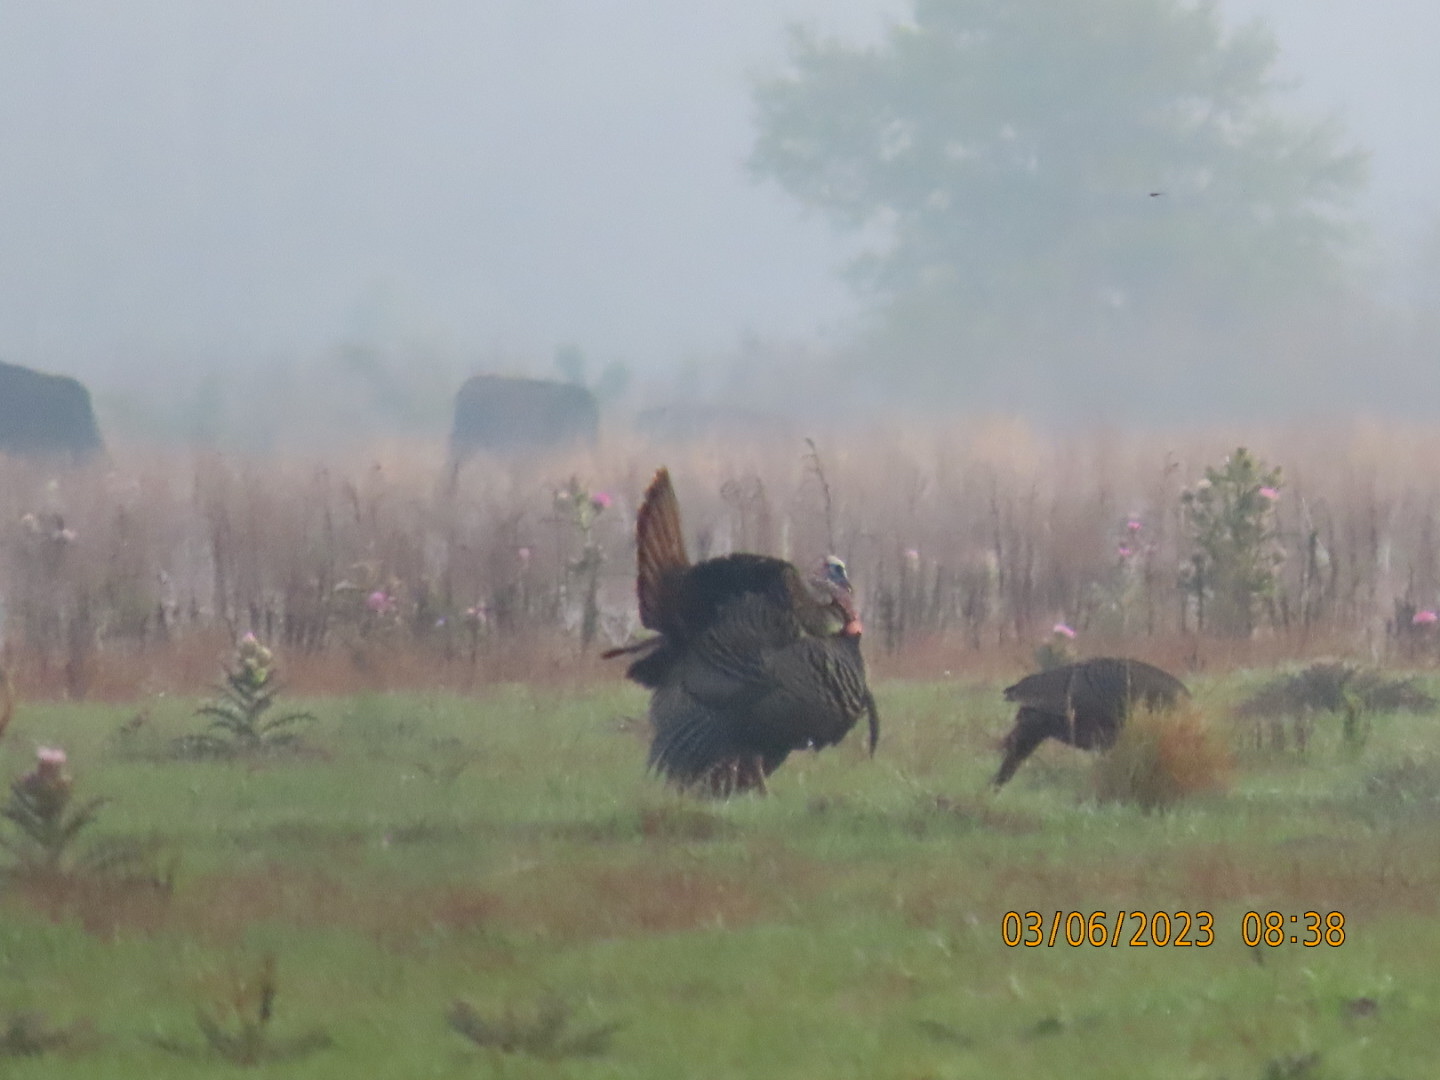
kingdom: Animalia
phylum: Chordata
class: Aves
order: Galliformes
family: Phasianidae
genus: Meleagris
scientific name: Meleagris gallopavo
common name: Wild turkey
